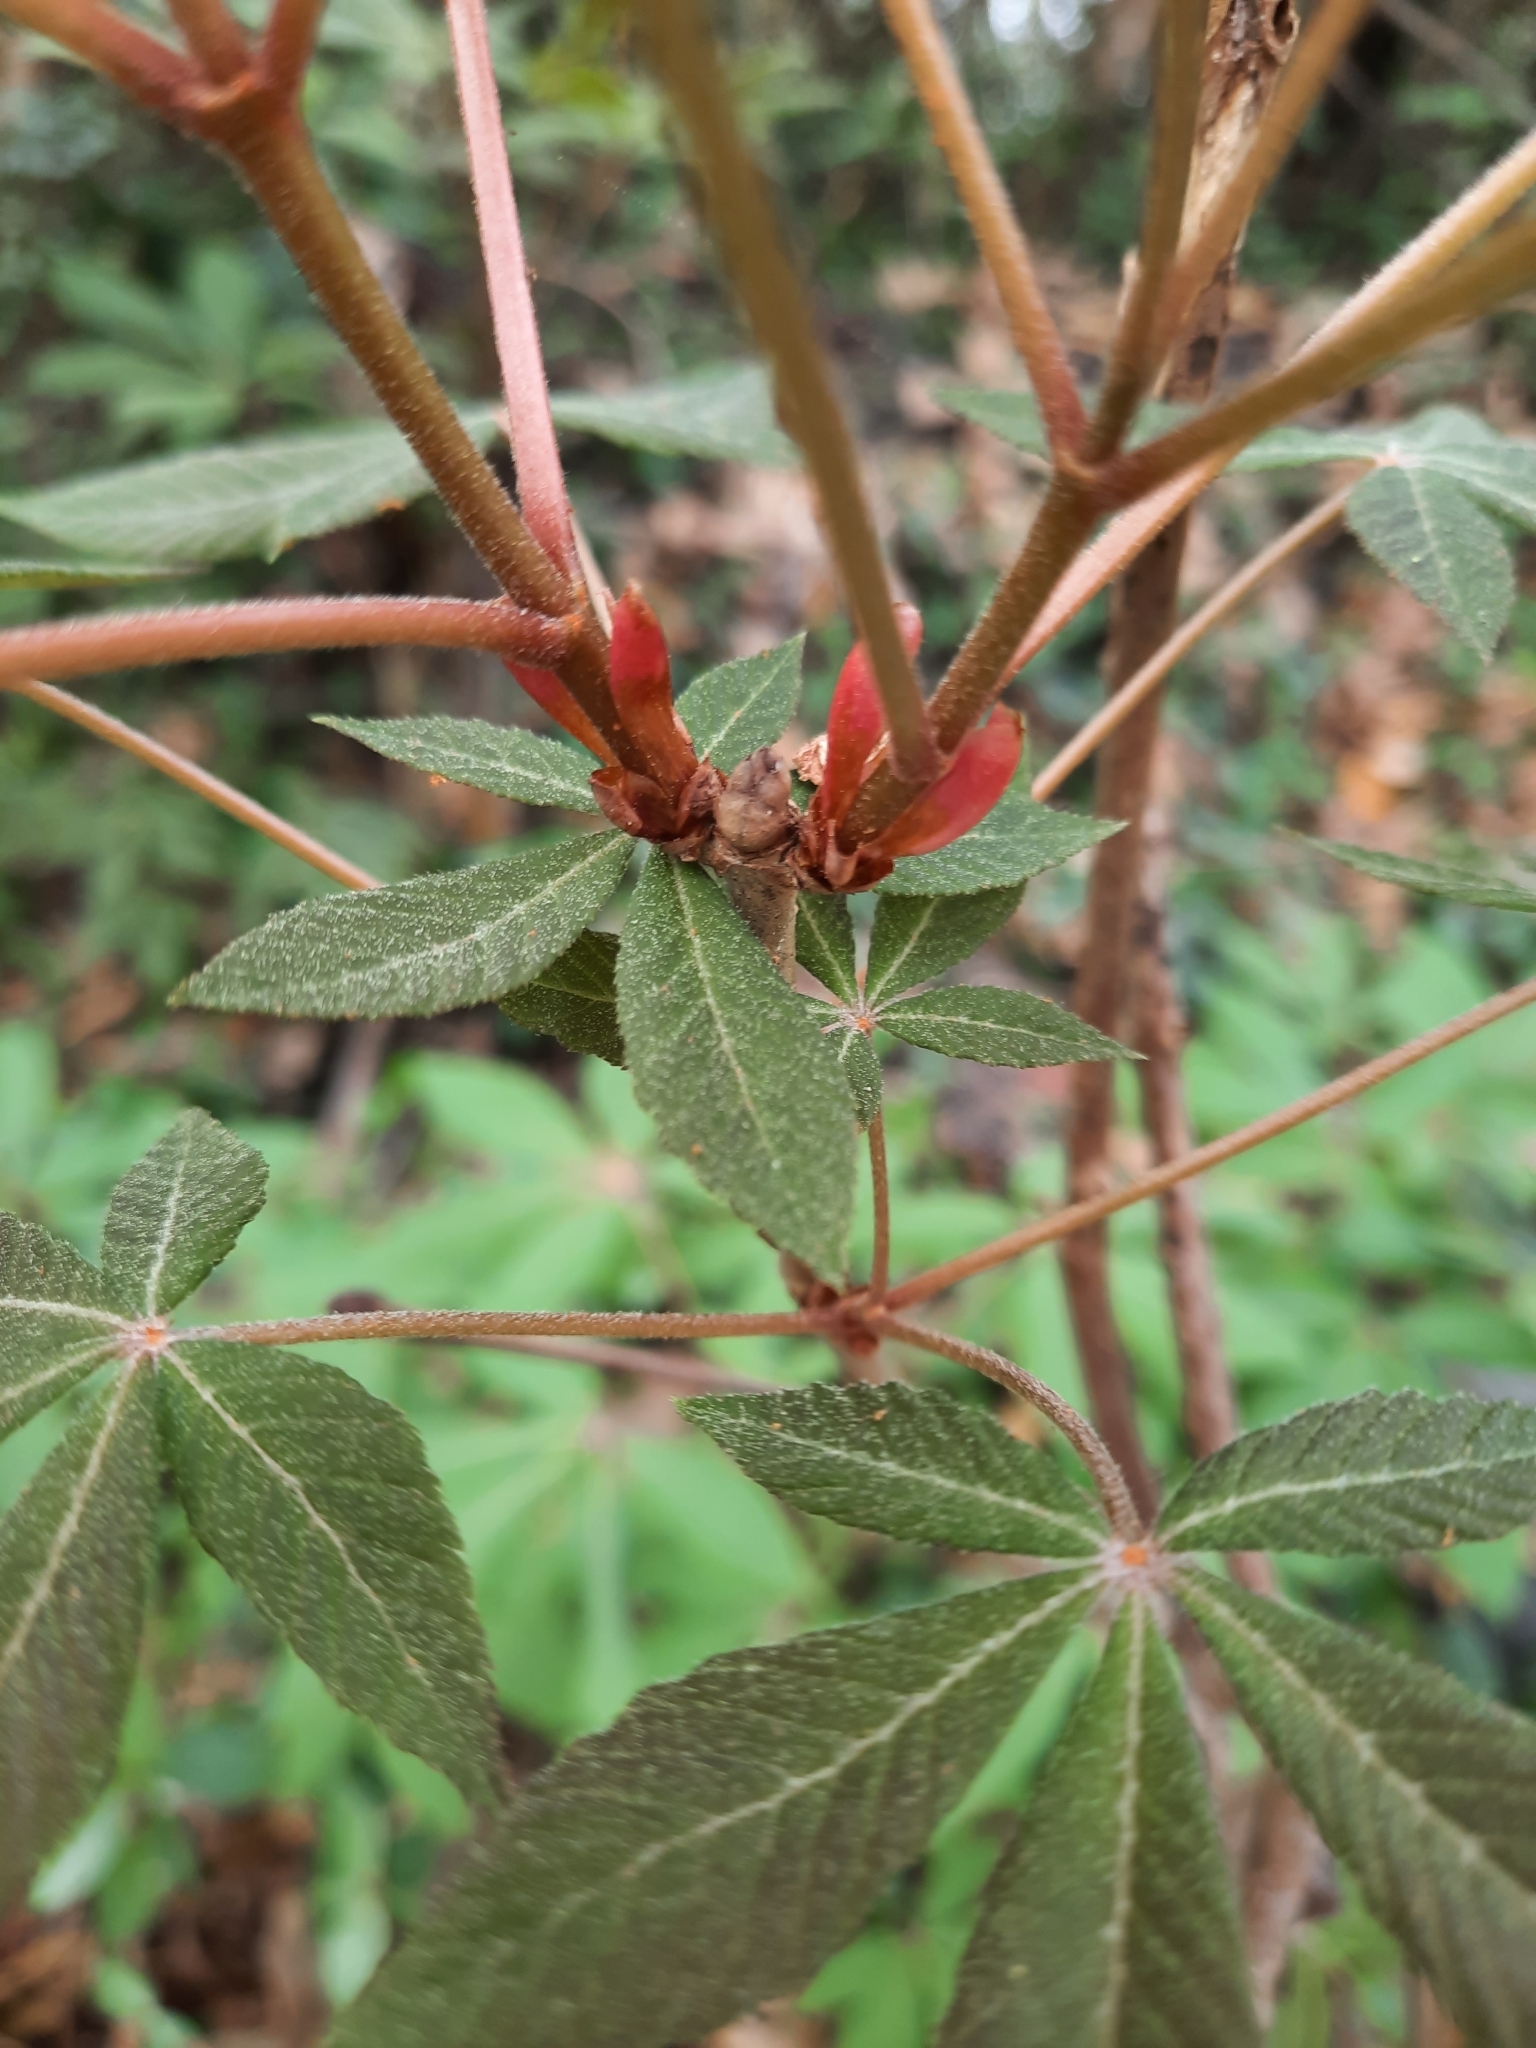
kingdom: Plantae
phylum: Tracheophyta
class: Magnoliopsida
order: Sapindales
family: Sapindaceae
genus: Aesculus
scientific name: Aesculus pavia
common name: Red buckeye
